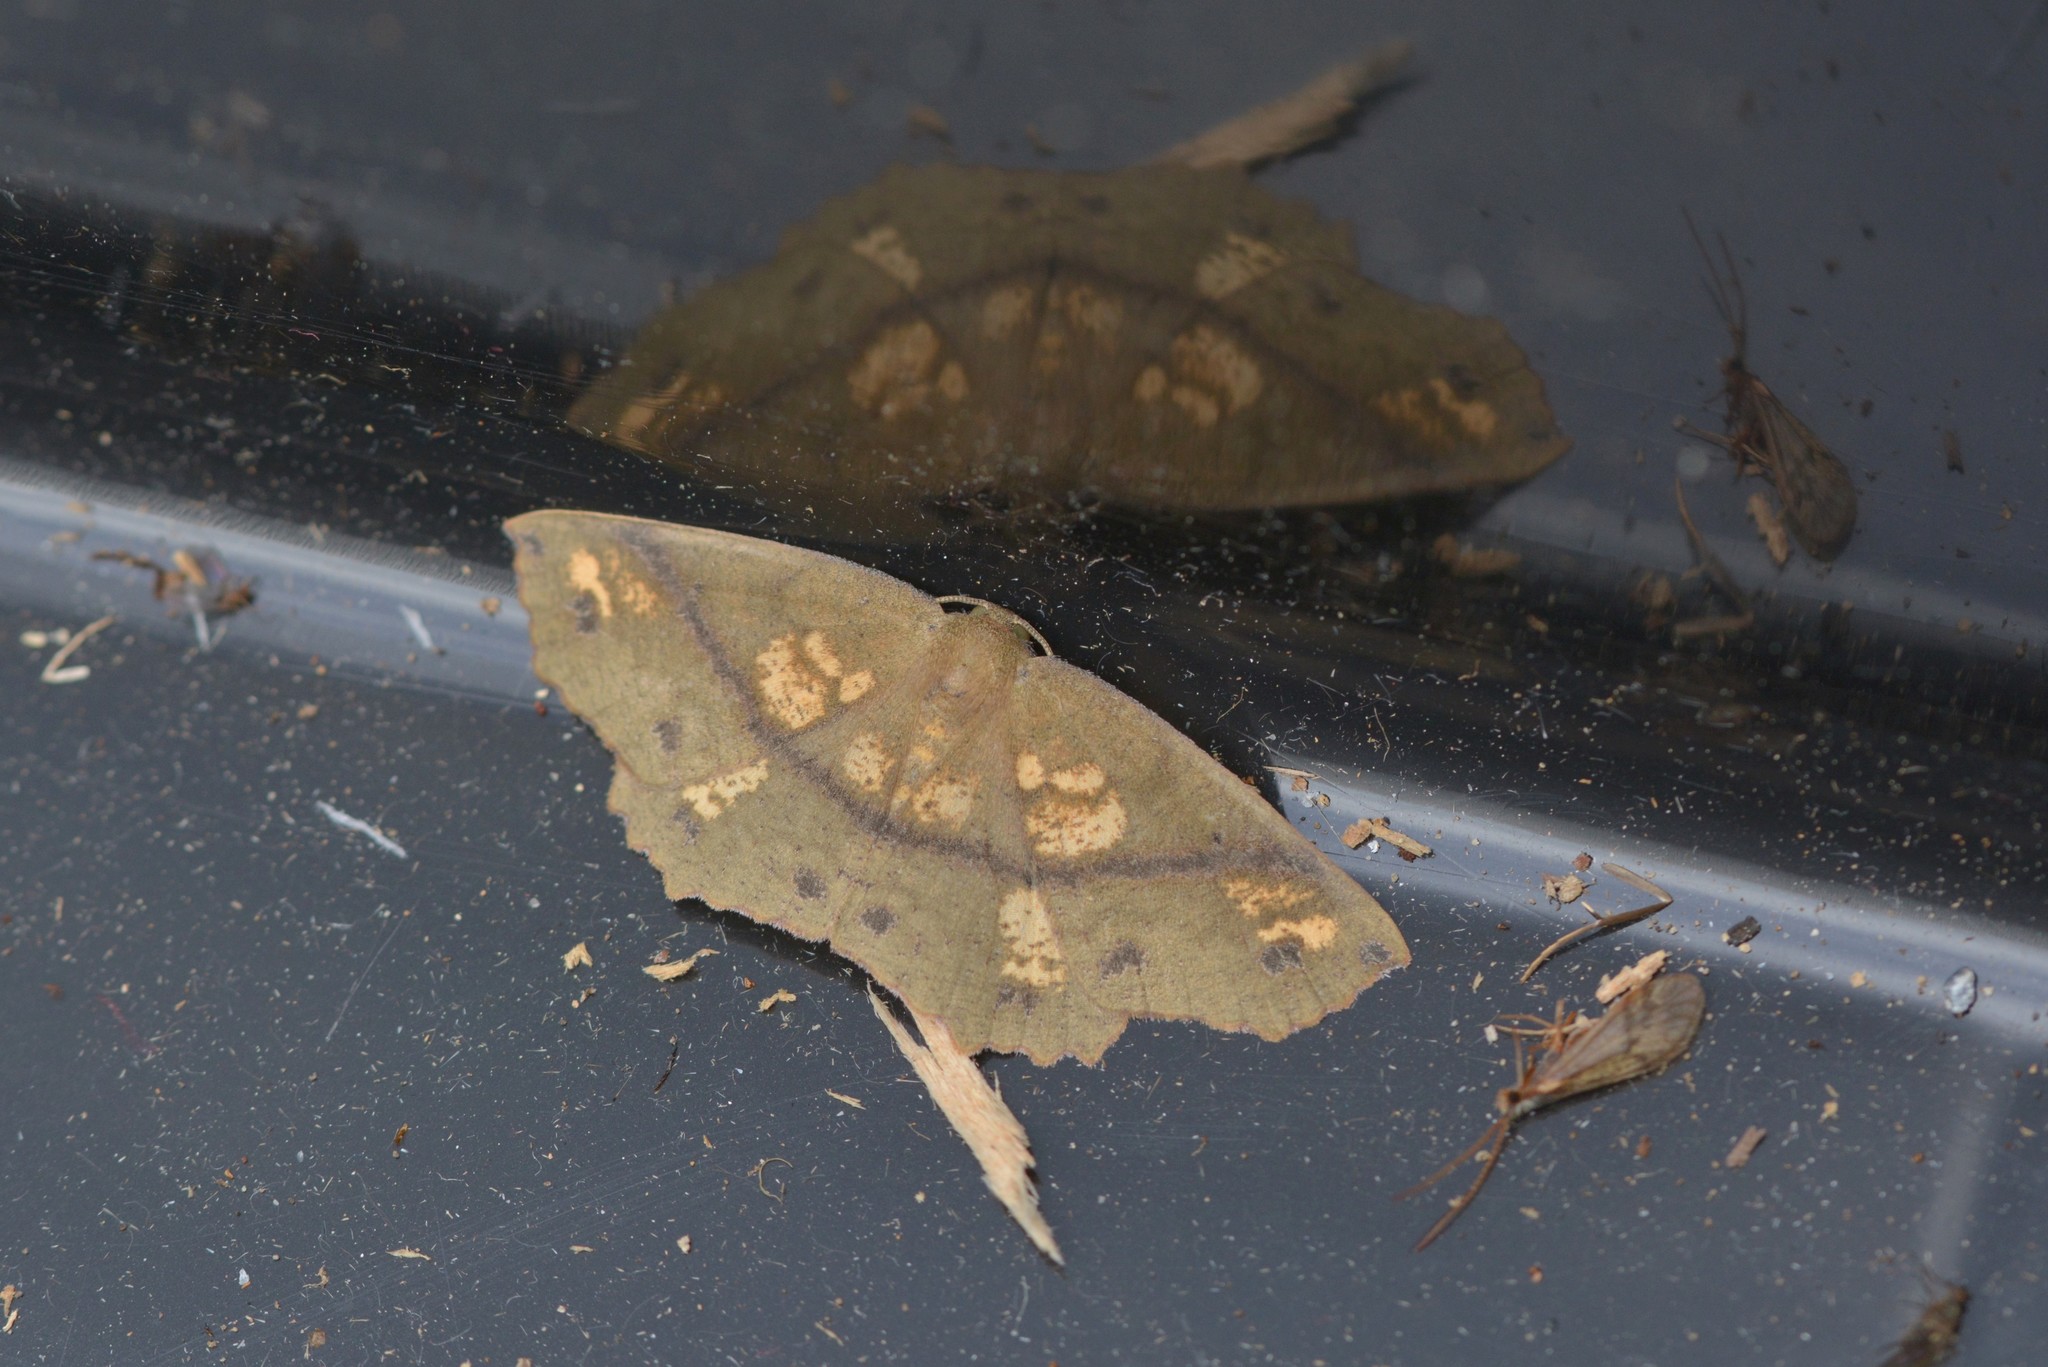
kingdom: Animalia
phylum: Arthropoda
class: Insecta
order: Lepidoptera
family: Geometridae
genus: Xyridacma
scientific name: Xyridacma ustaria
